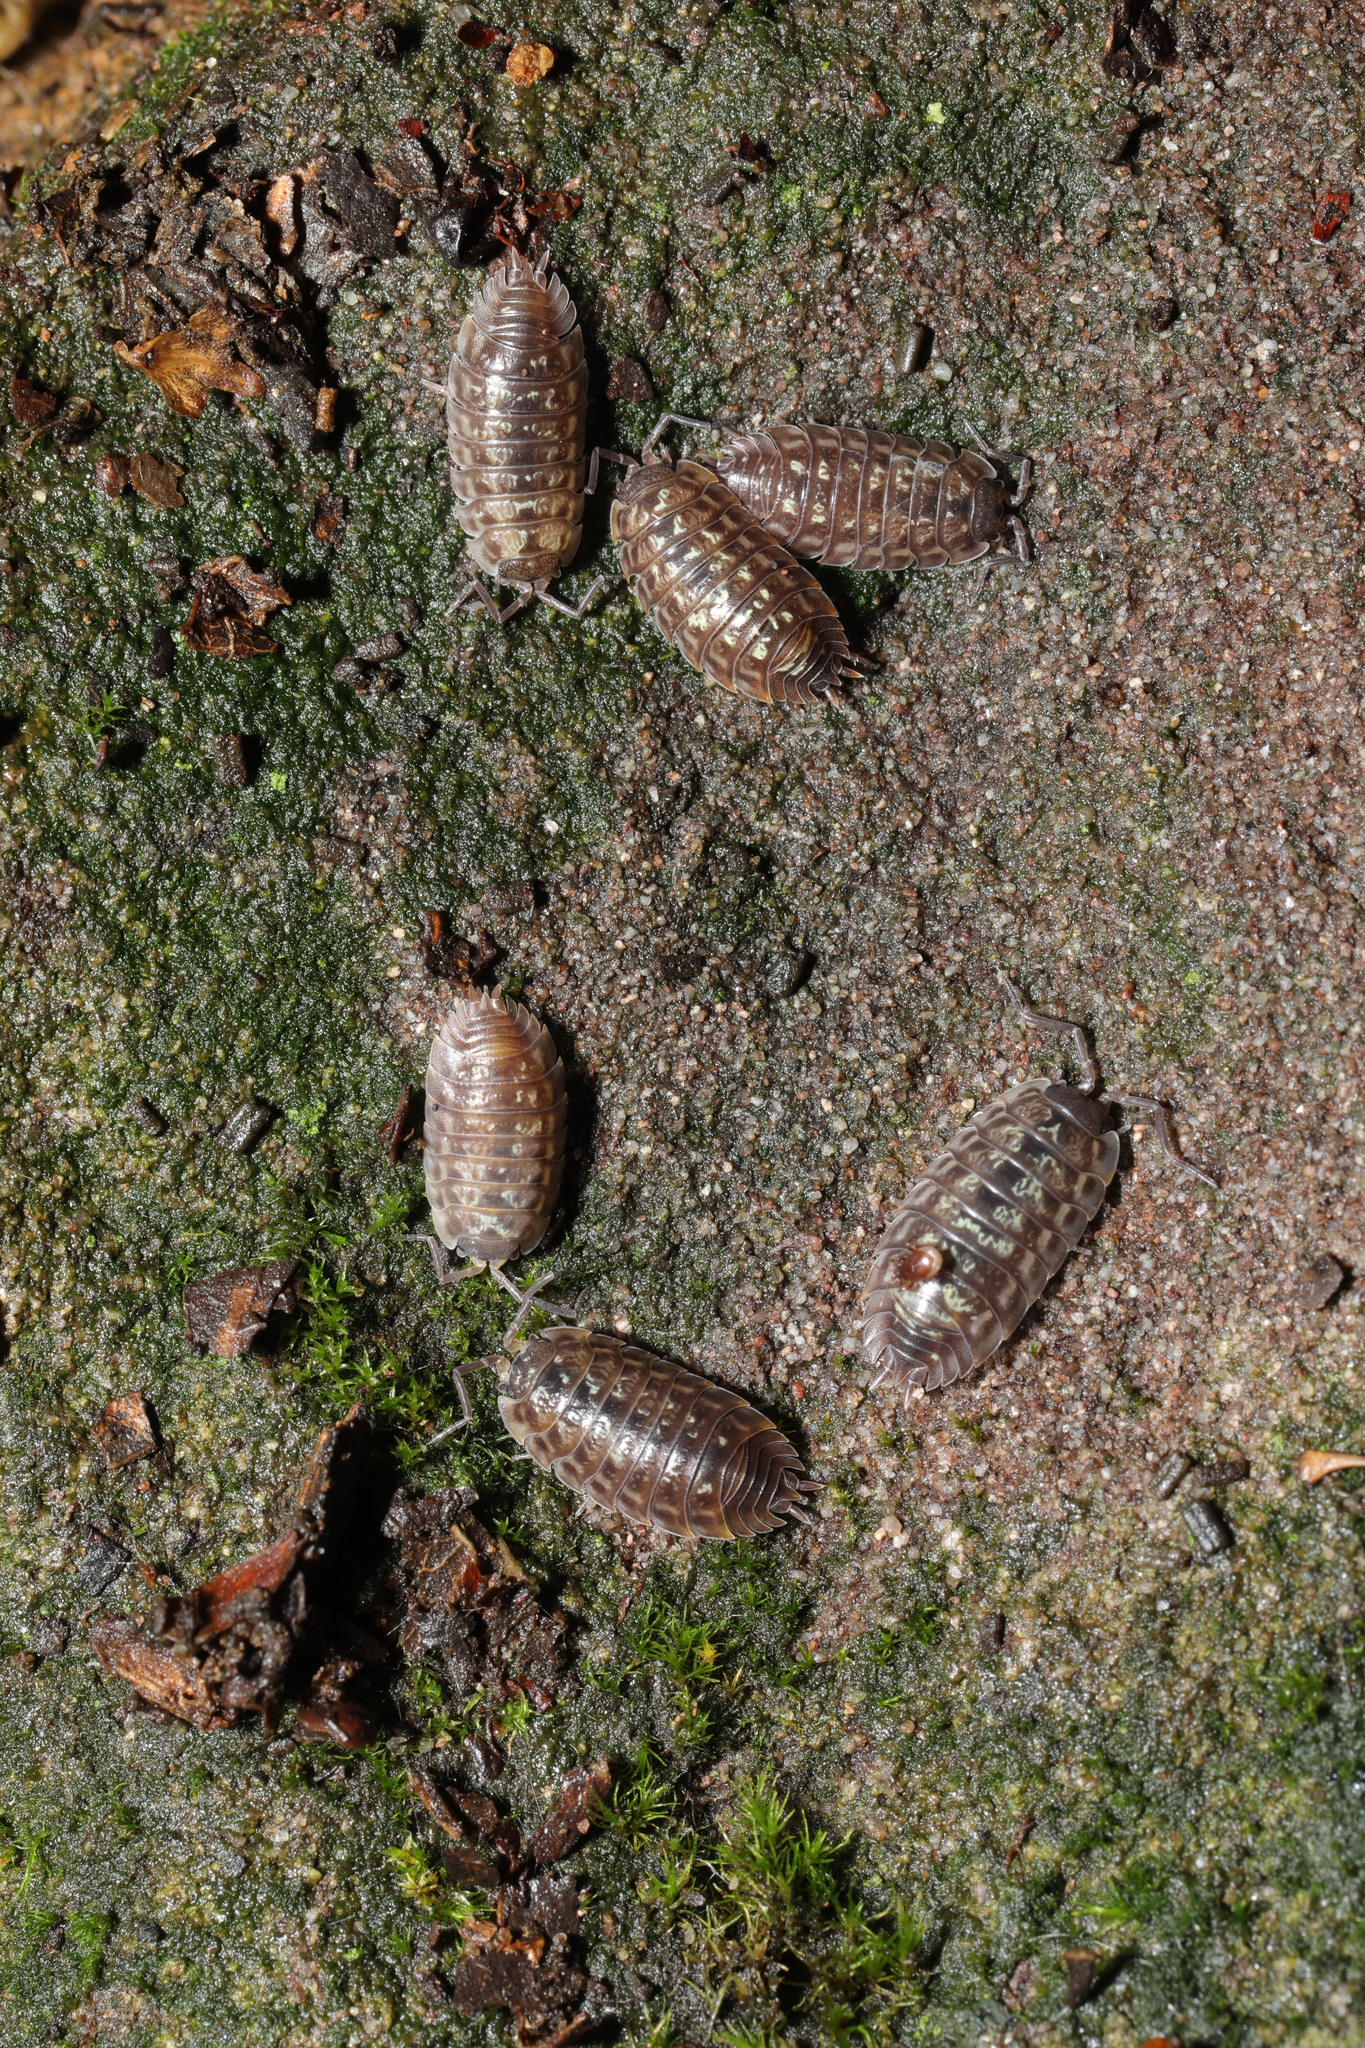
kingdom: Animalia
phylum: Arthropoda
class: Malacostraca
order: Isopoda
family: Oniscidae
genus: Oniscus
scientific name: Oniscus asellus
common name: Common shiny woodlouse
